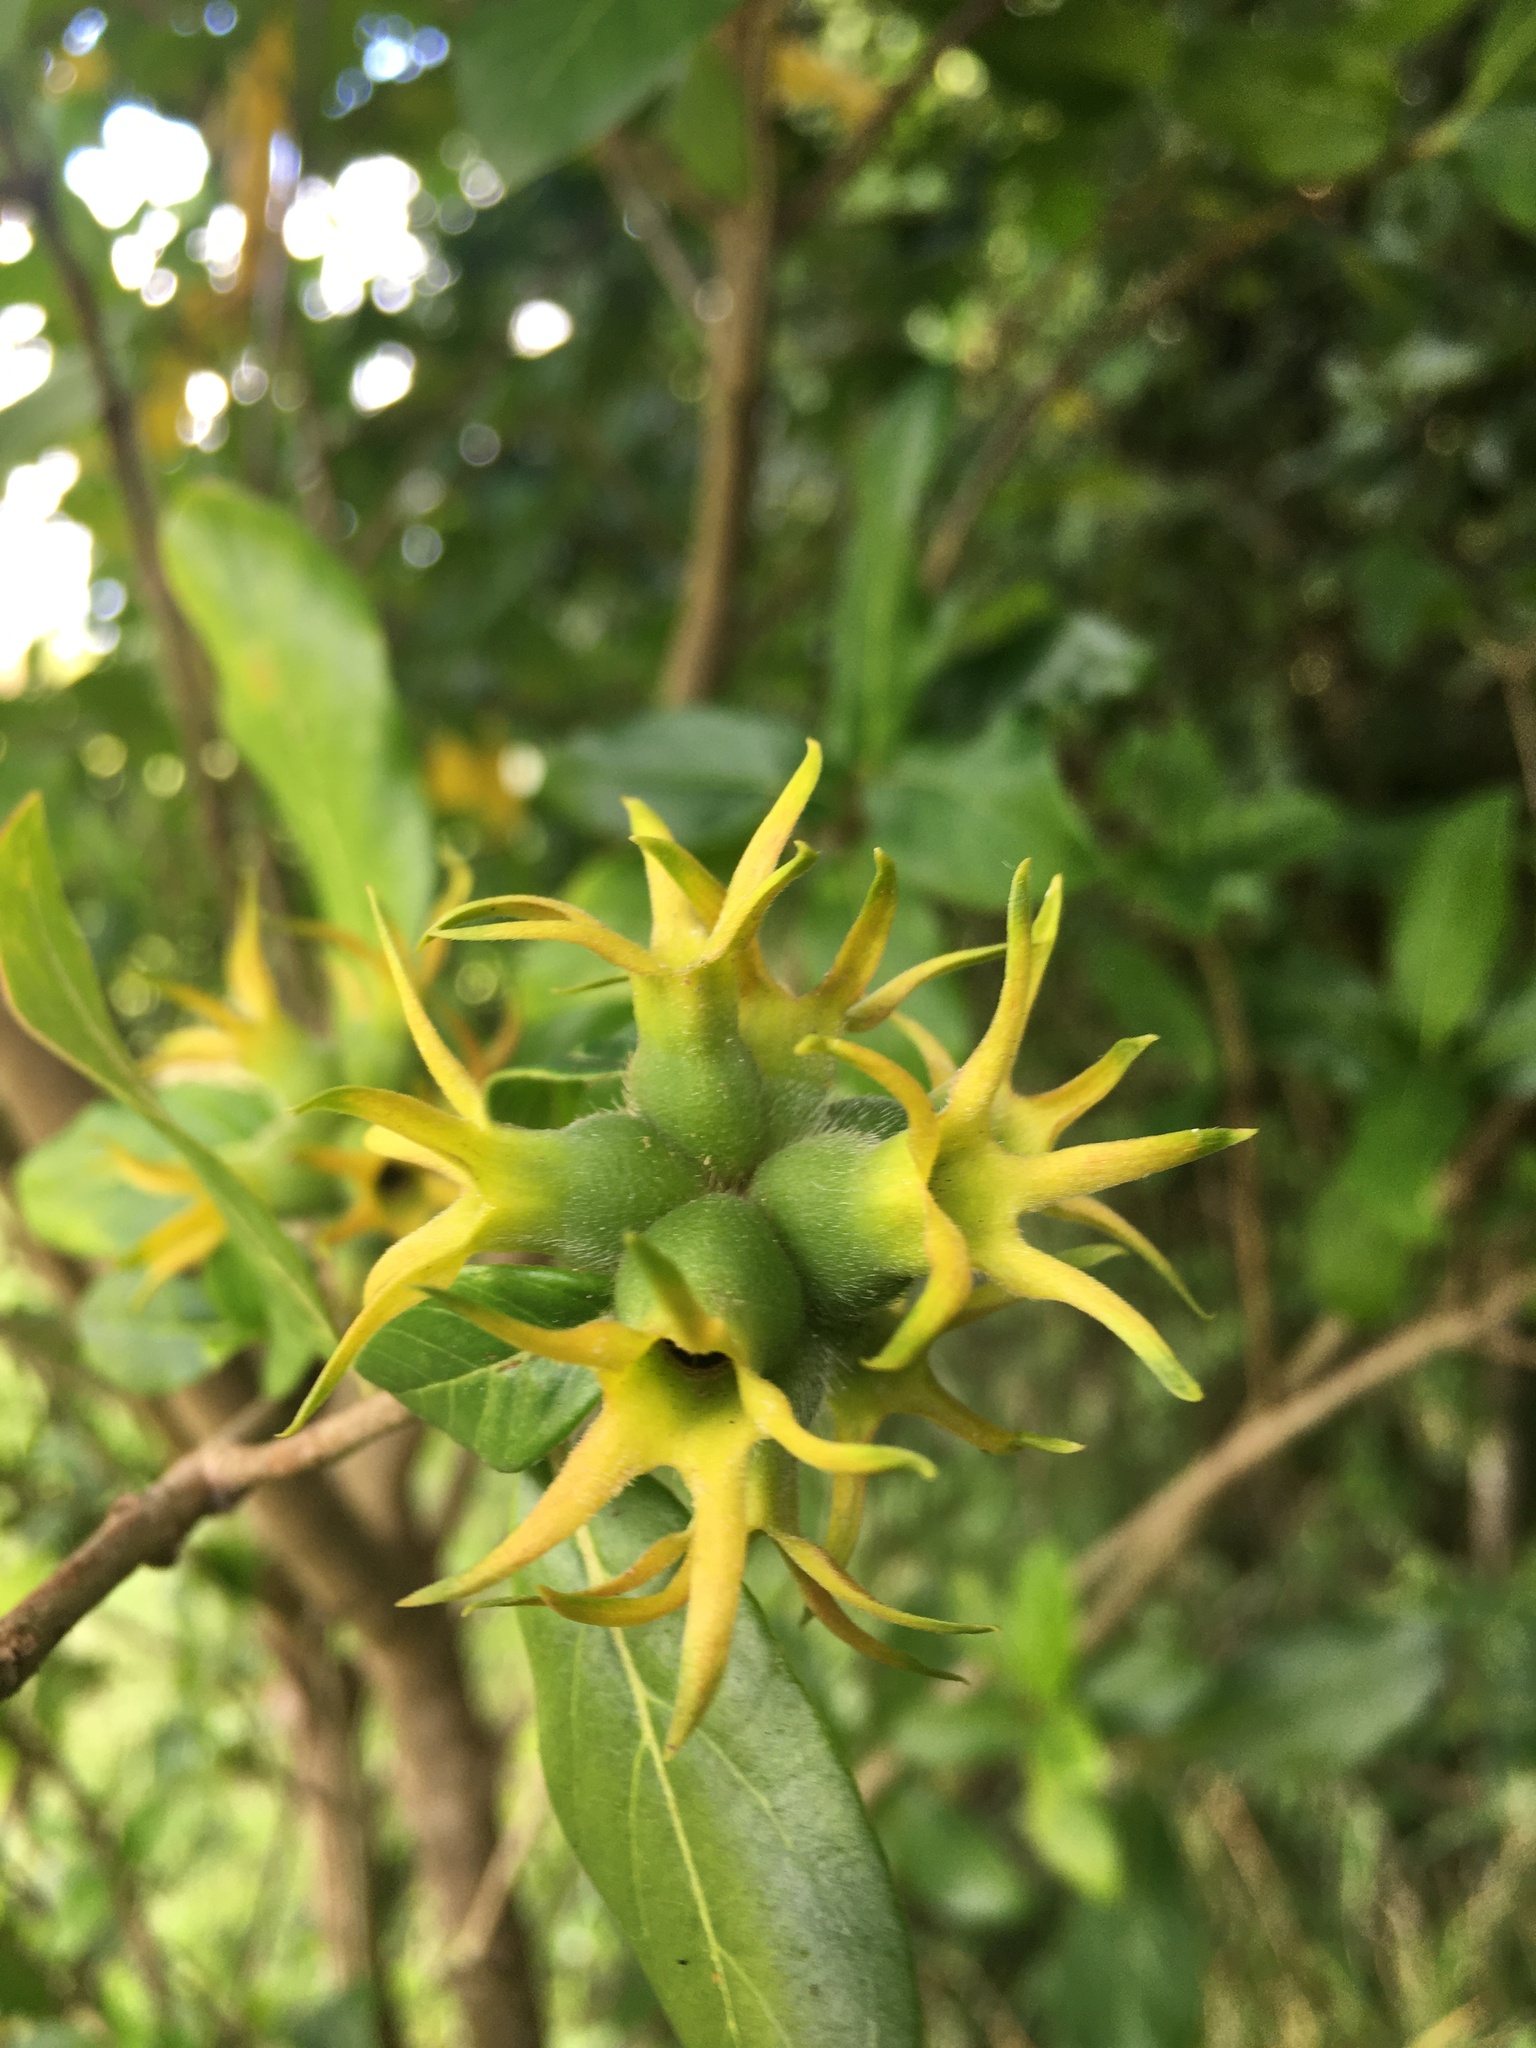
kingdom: Plantae
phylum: Tracheophyta
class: Magnoliopsida
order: Gentianales
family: Rubiaceae
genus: Burchellia
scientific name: Burchellia bubalina
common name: Wild pomegranate
